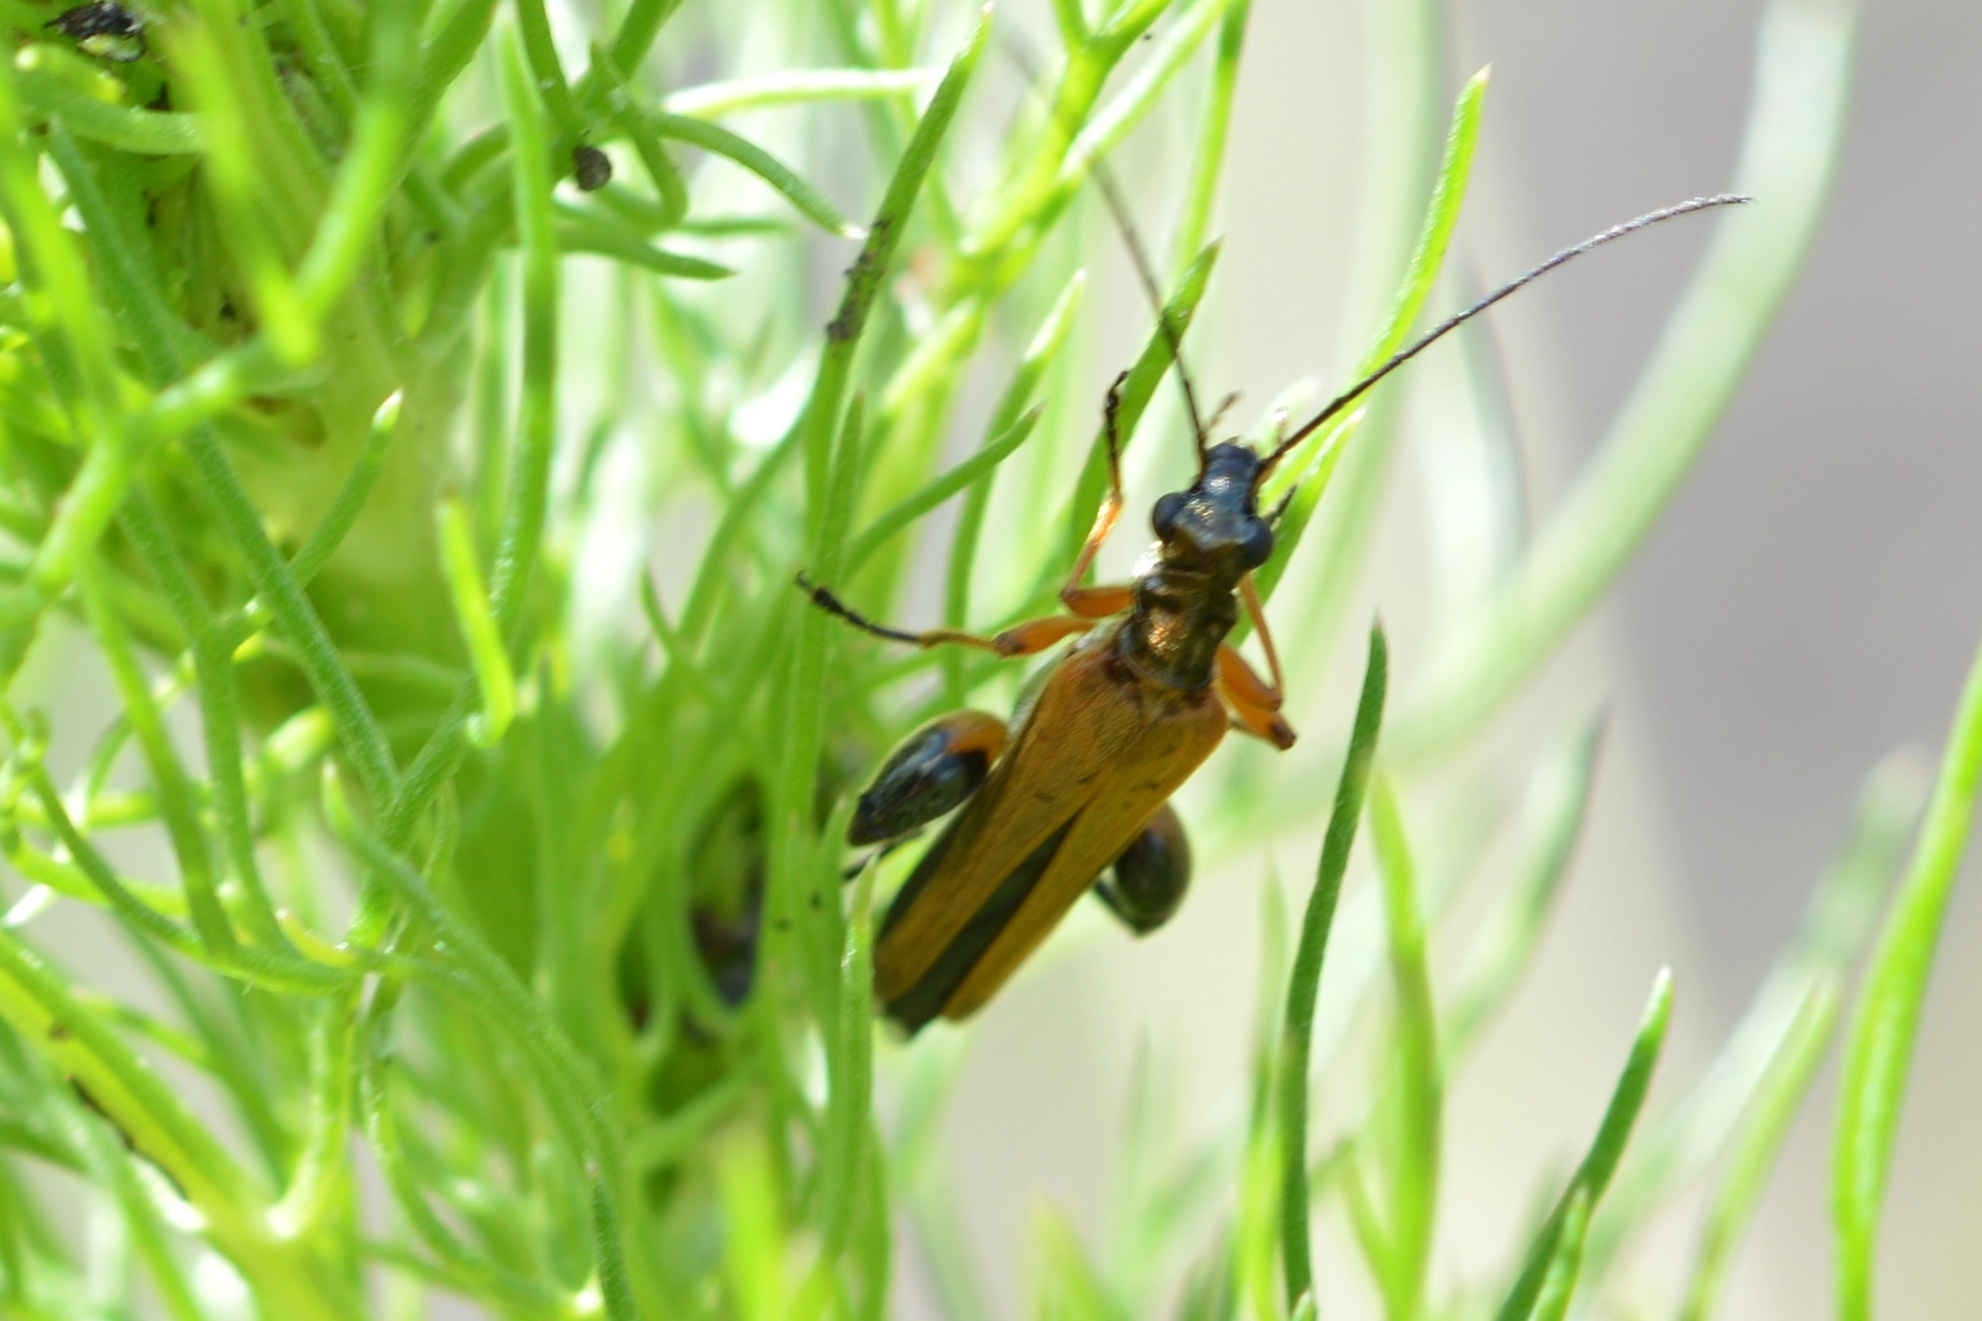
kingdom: Animalia
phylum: Arthropoda
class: Insecta
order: Coleoptera
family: Oedemeridae
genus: Oedemera
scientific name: Oedemera podagrariae
